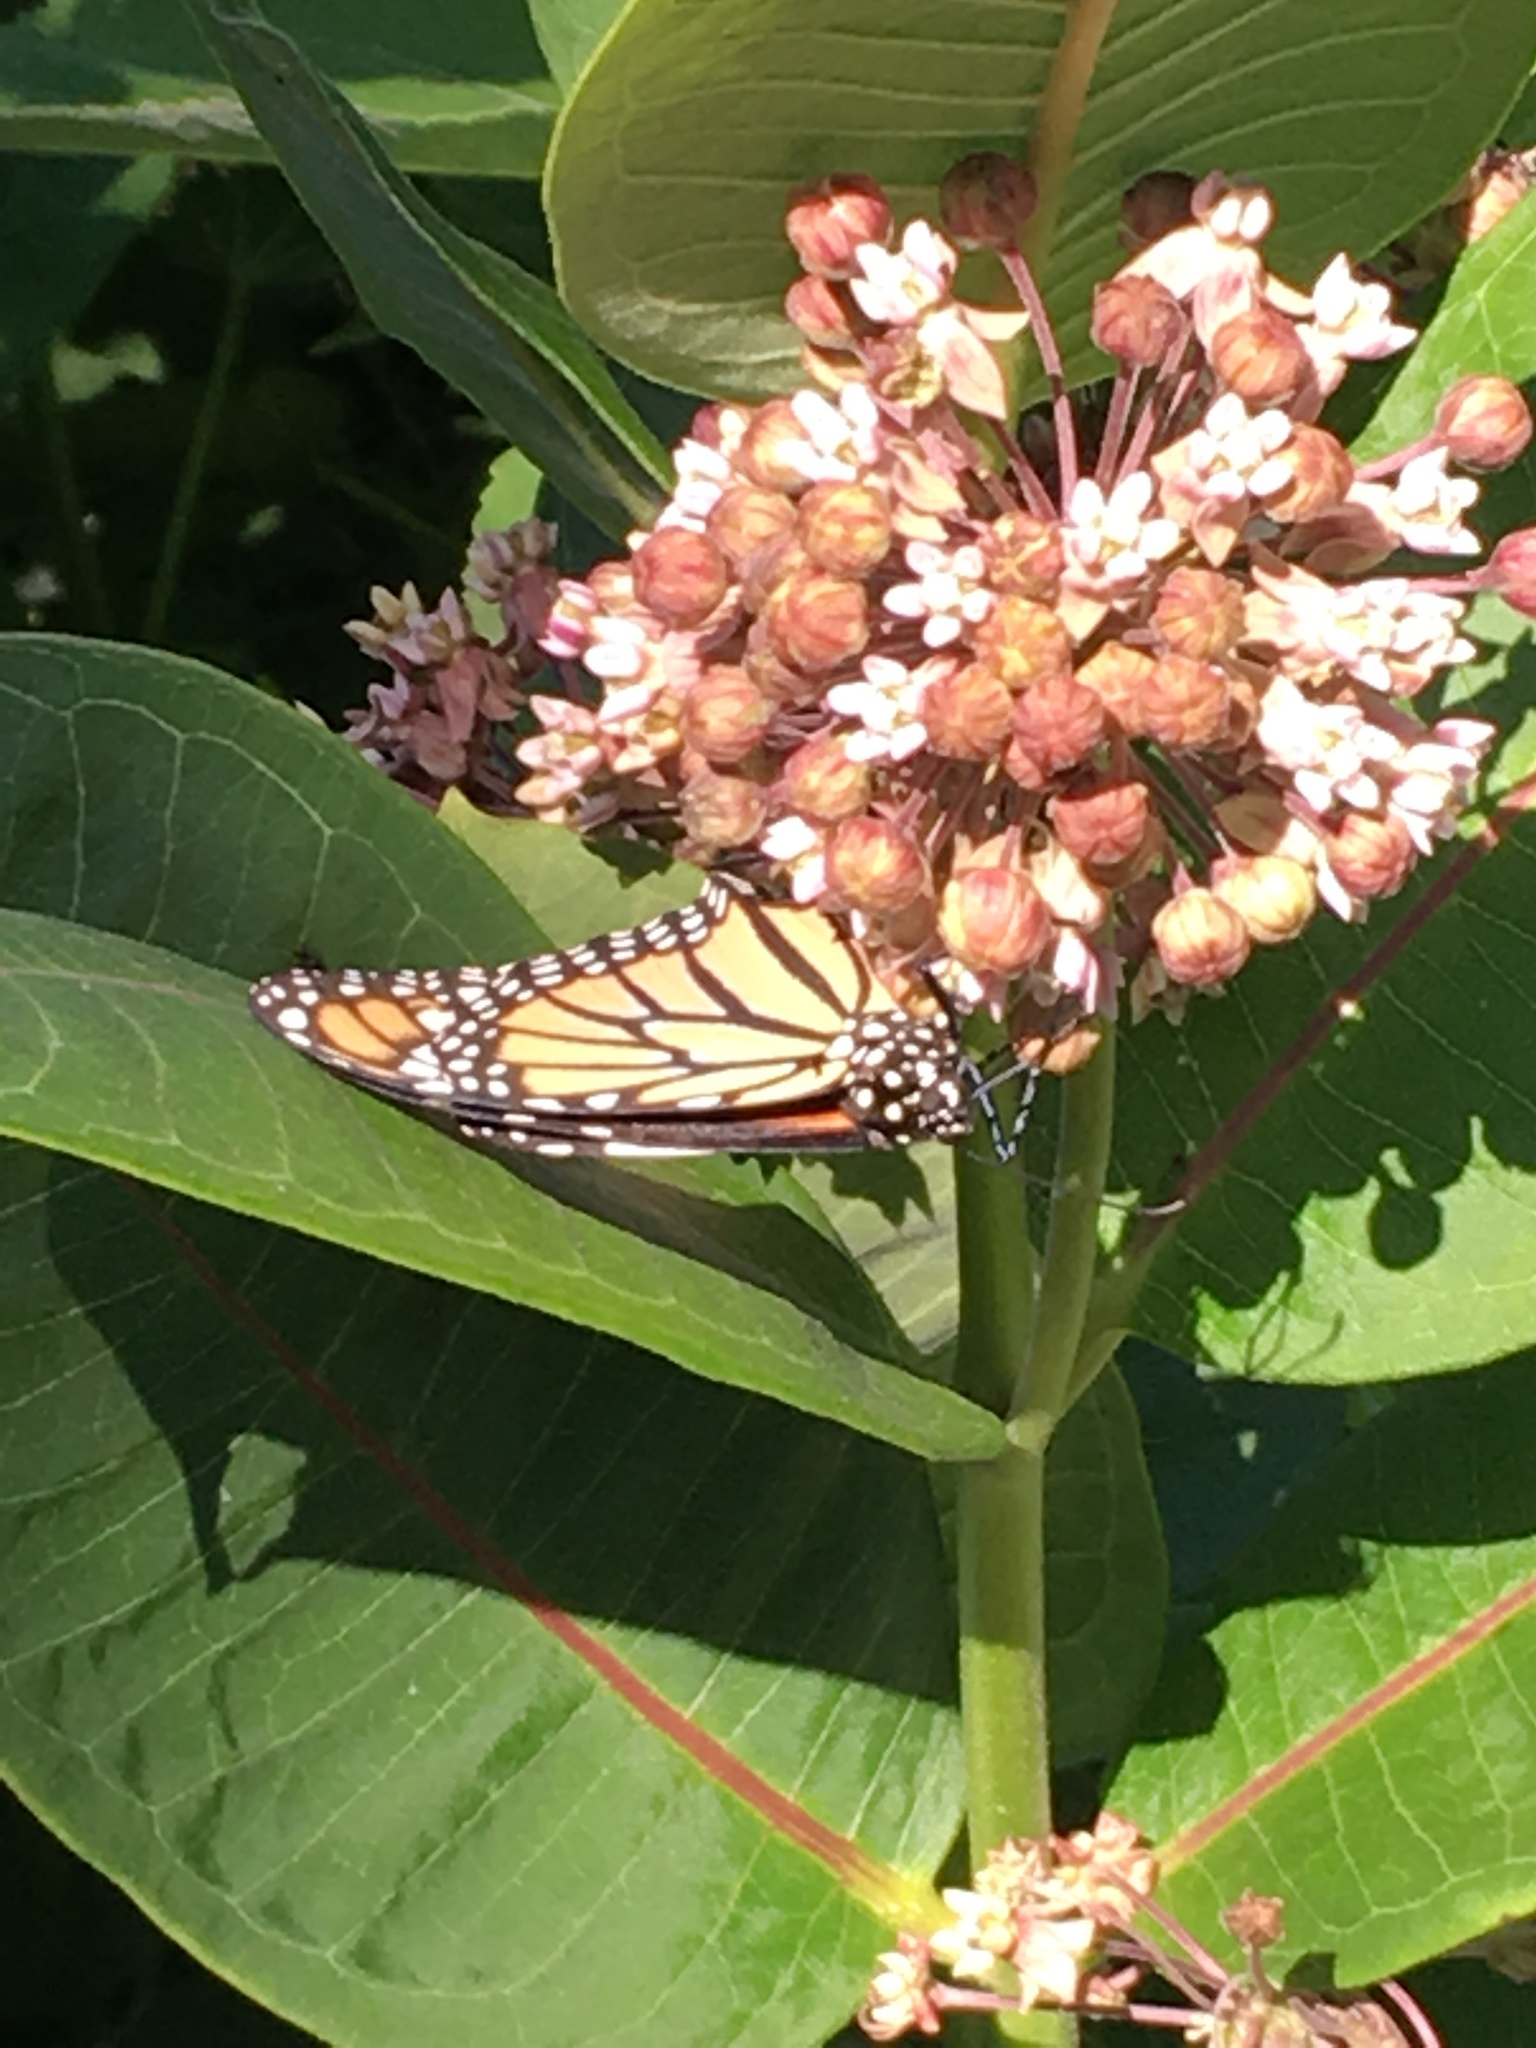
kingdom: Animalia
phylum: Arthropoda
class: Insecta
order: Lepidoptera
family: Nymphalidae
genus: Danaus
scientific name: Danaus plexippus
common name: Monarch
